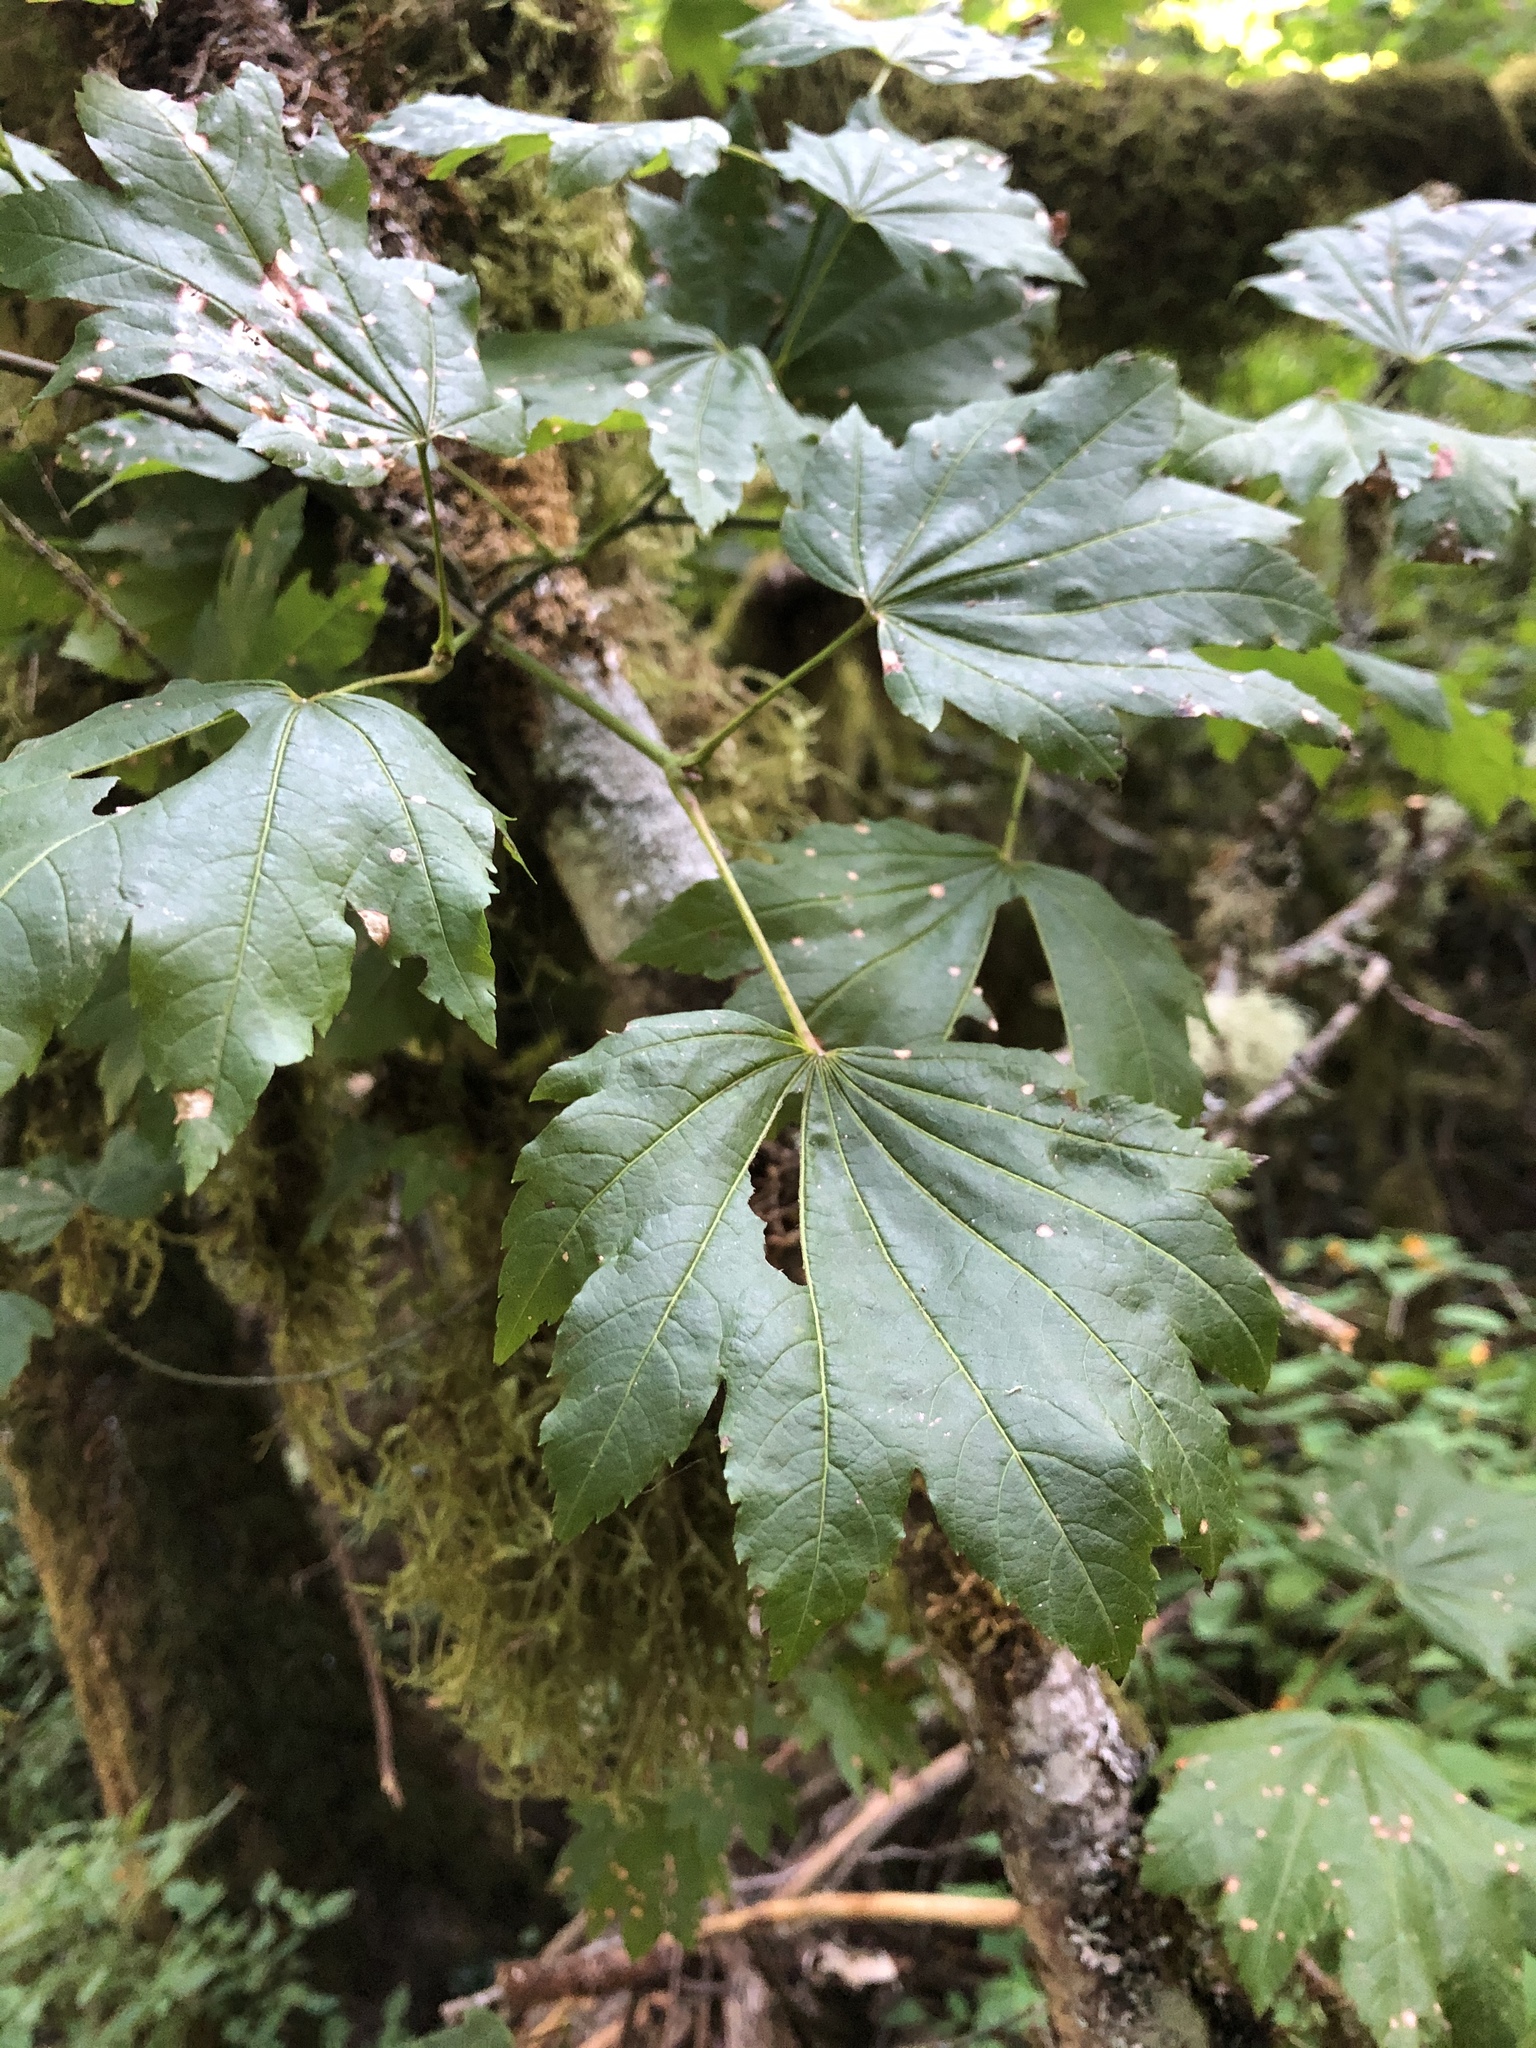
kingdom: Plantae
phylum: Tracheophyta
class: Magnoliopsida
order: Sapindales
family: Sapindaceae
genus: Acer
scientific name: Acer circinatum
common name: Vine maple
